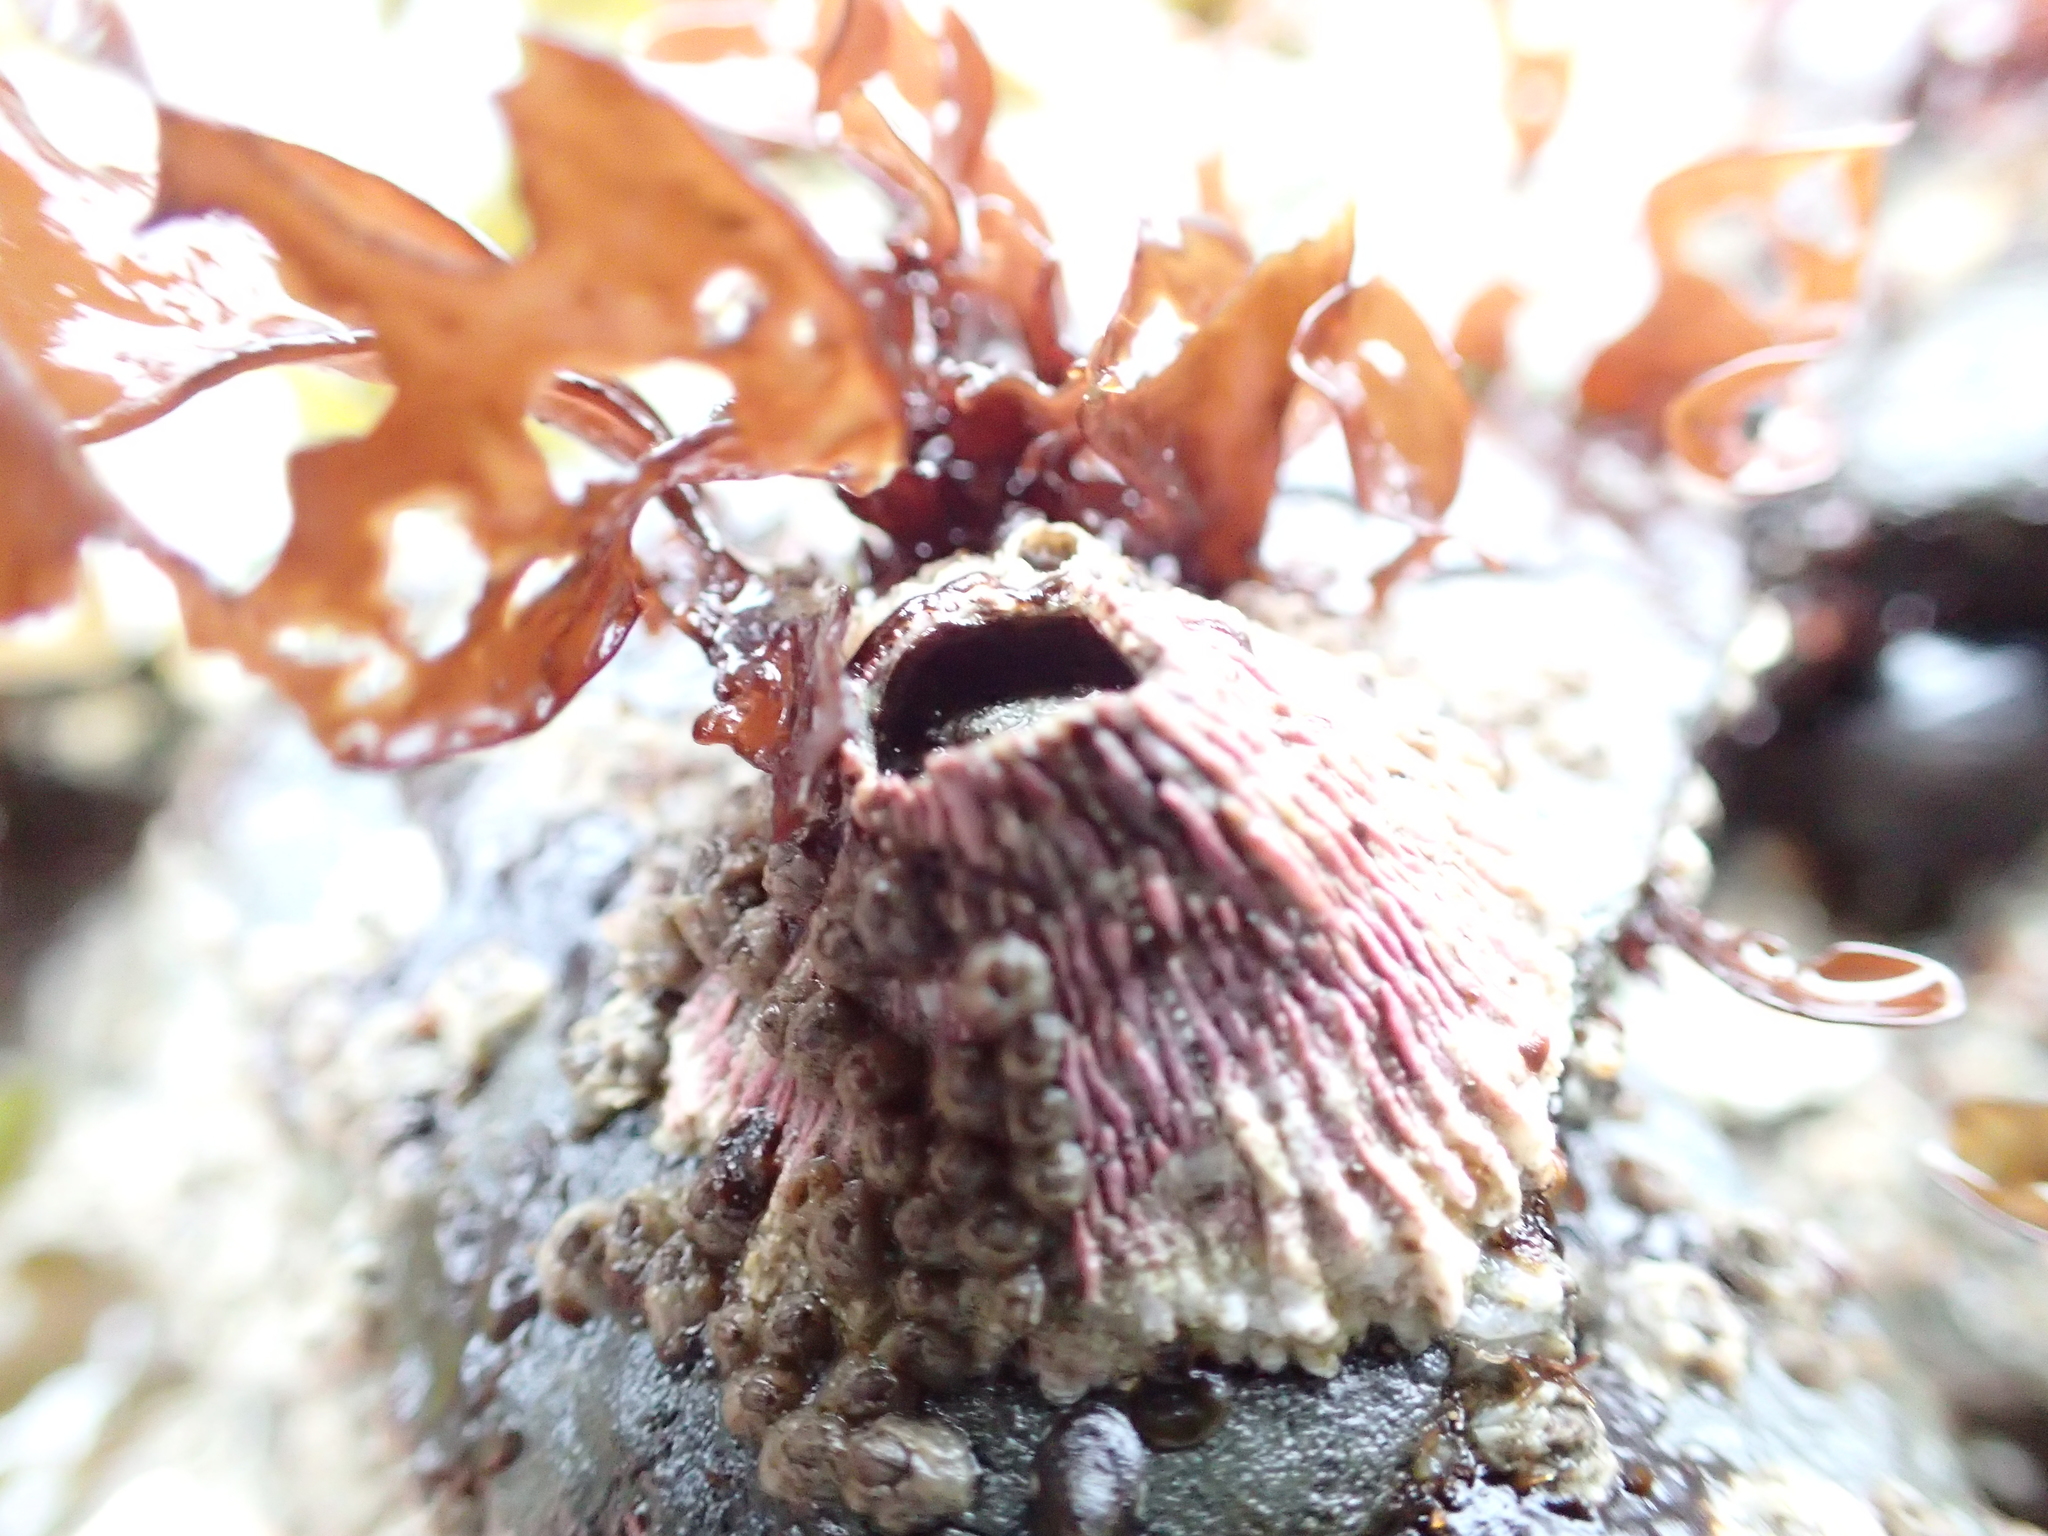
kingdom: Animalia
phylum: Arthropoda
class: Maxillopoda
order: Sessilia
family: Tetraclitidae
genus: Tetraclita
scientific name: Tetraclita rubescens
